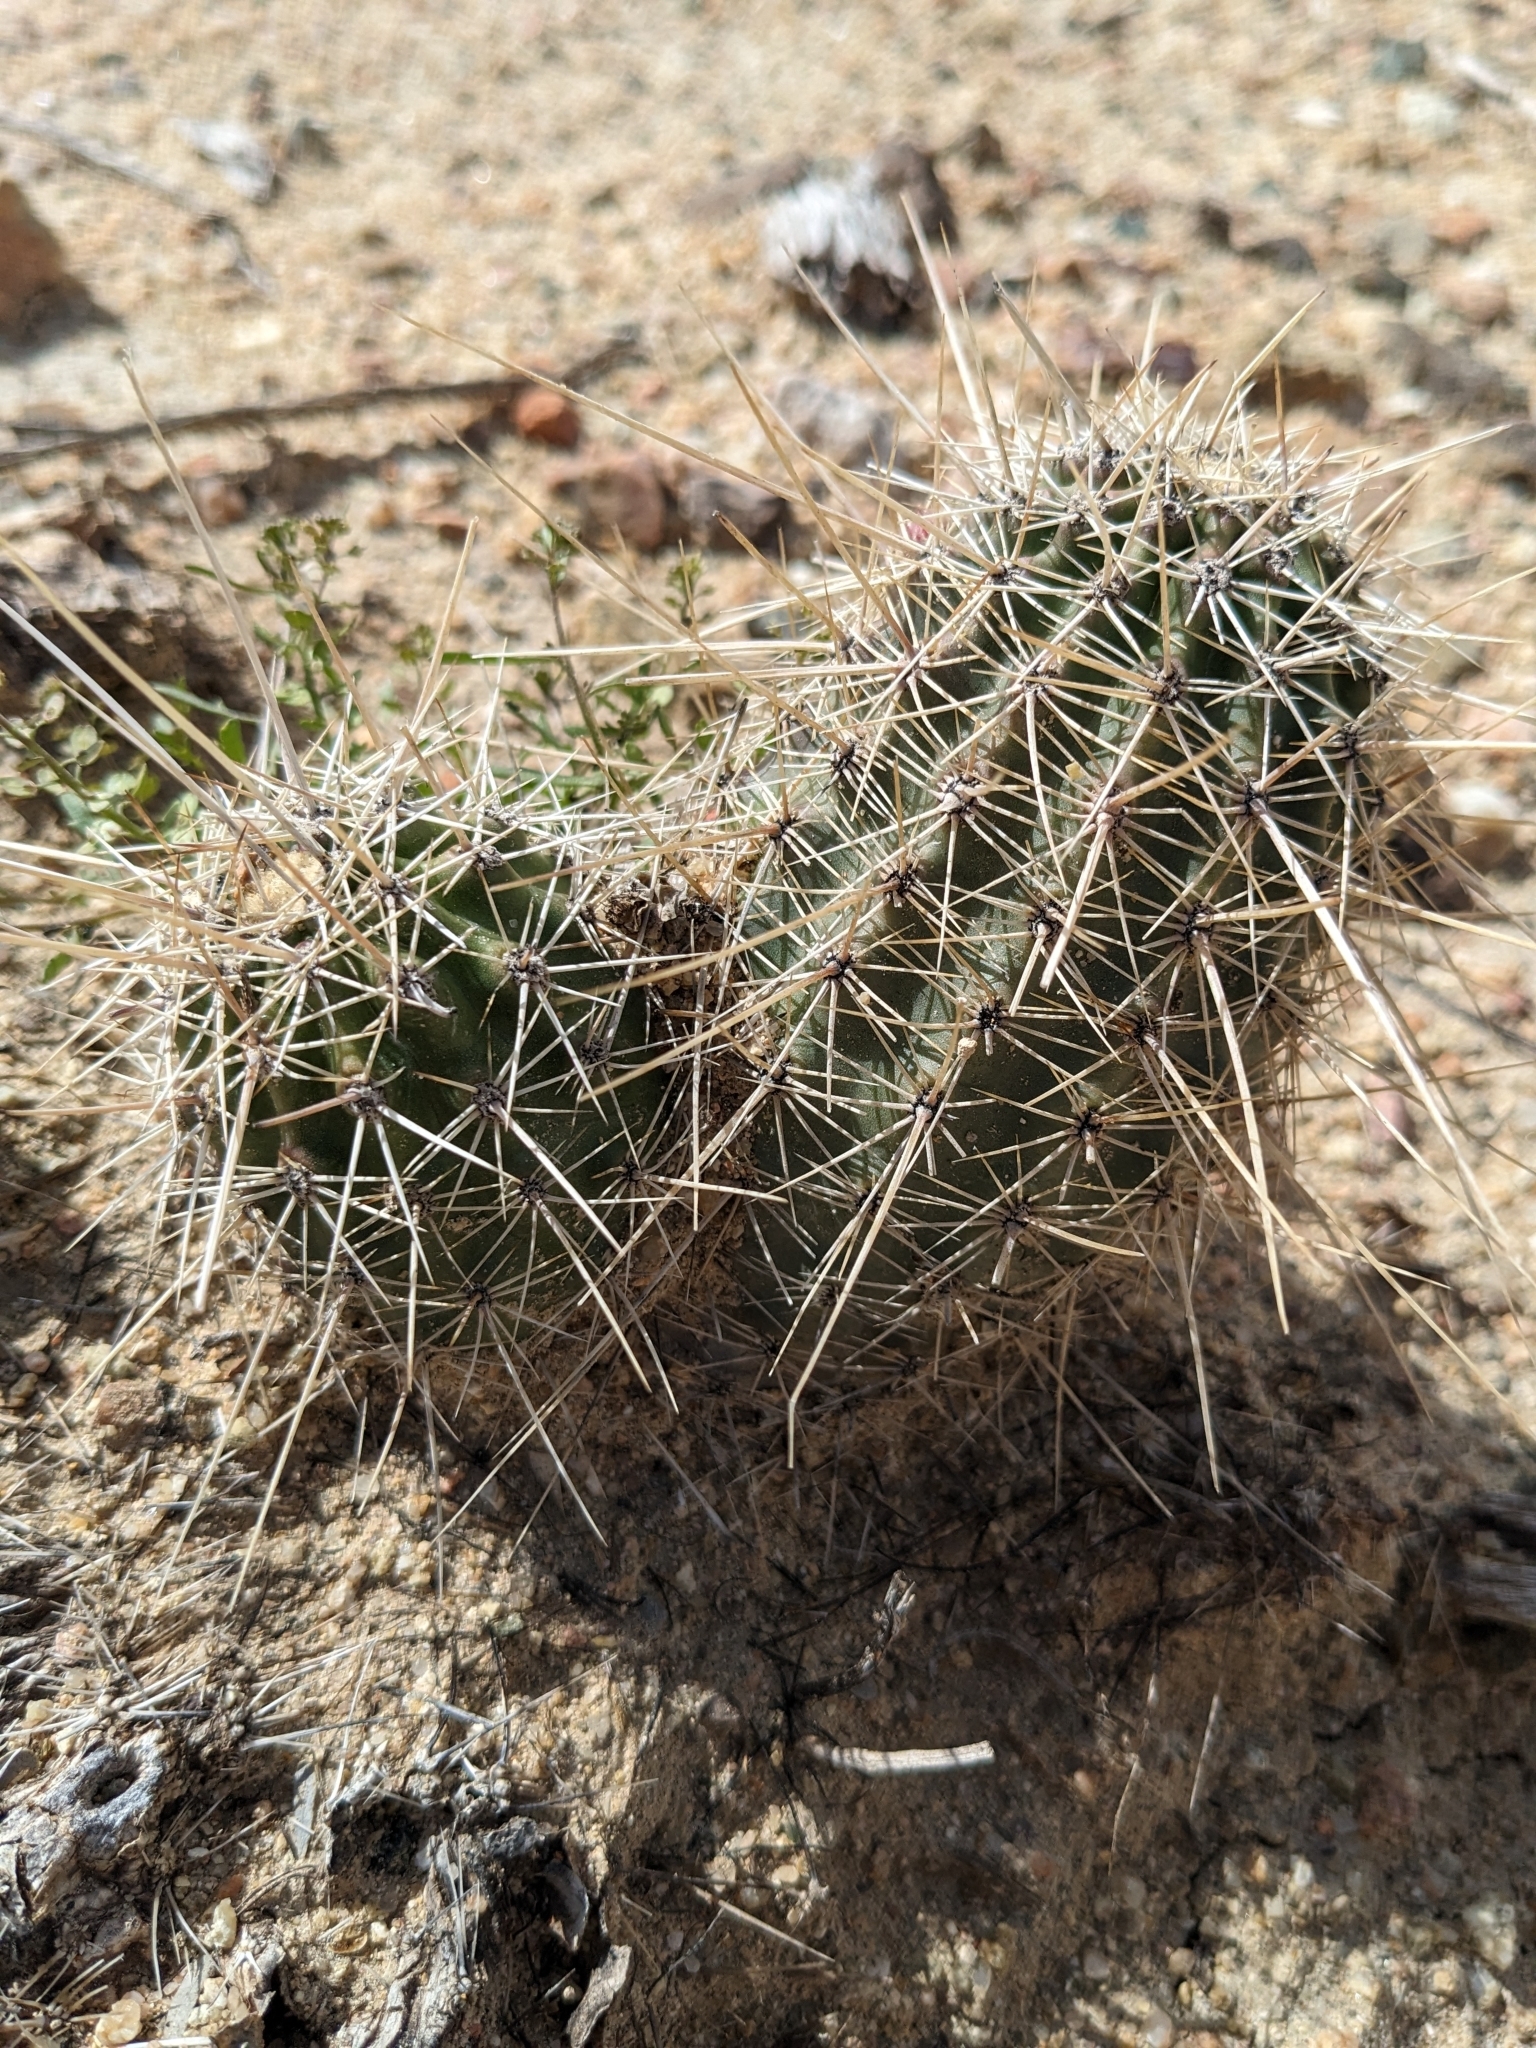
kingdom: Plantae
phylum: Tracheophyta
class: Magnoliopsida
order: Caryophyllales
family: Cactaceae
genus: Echinocereus
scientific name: Echinocereus bakeri
